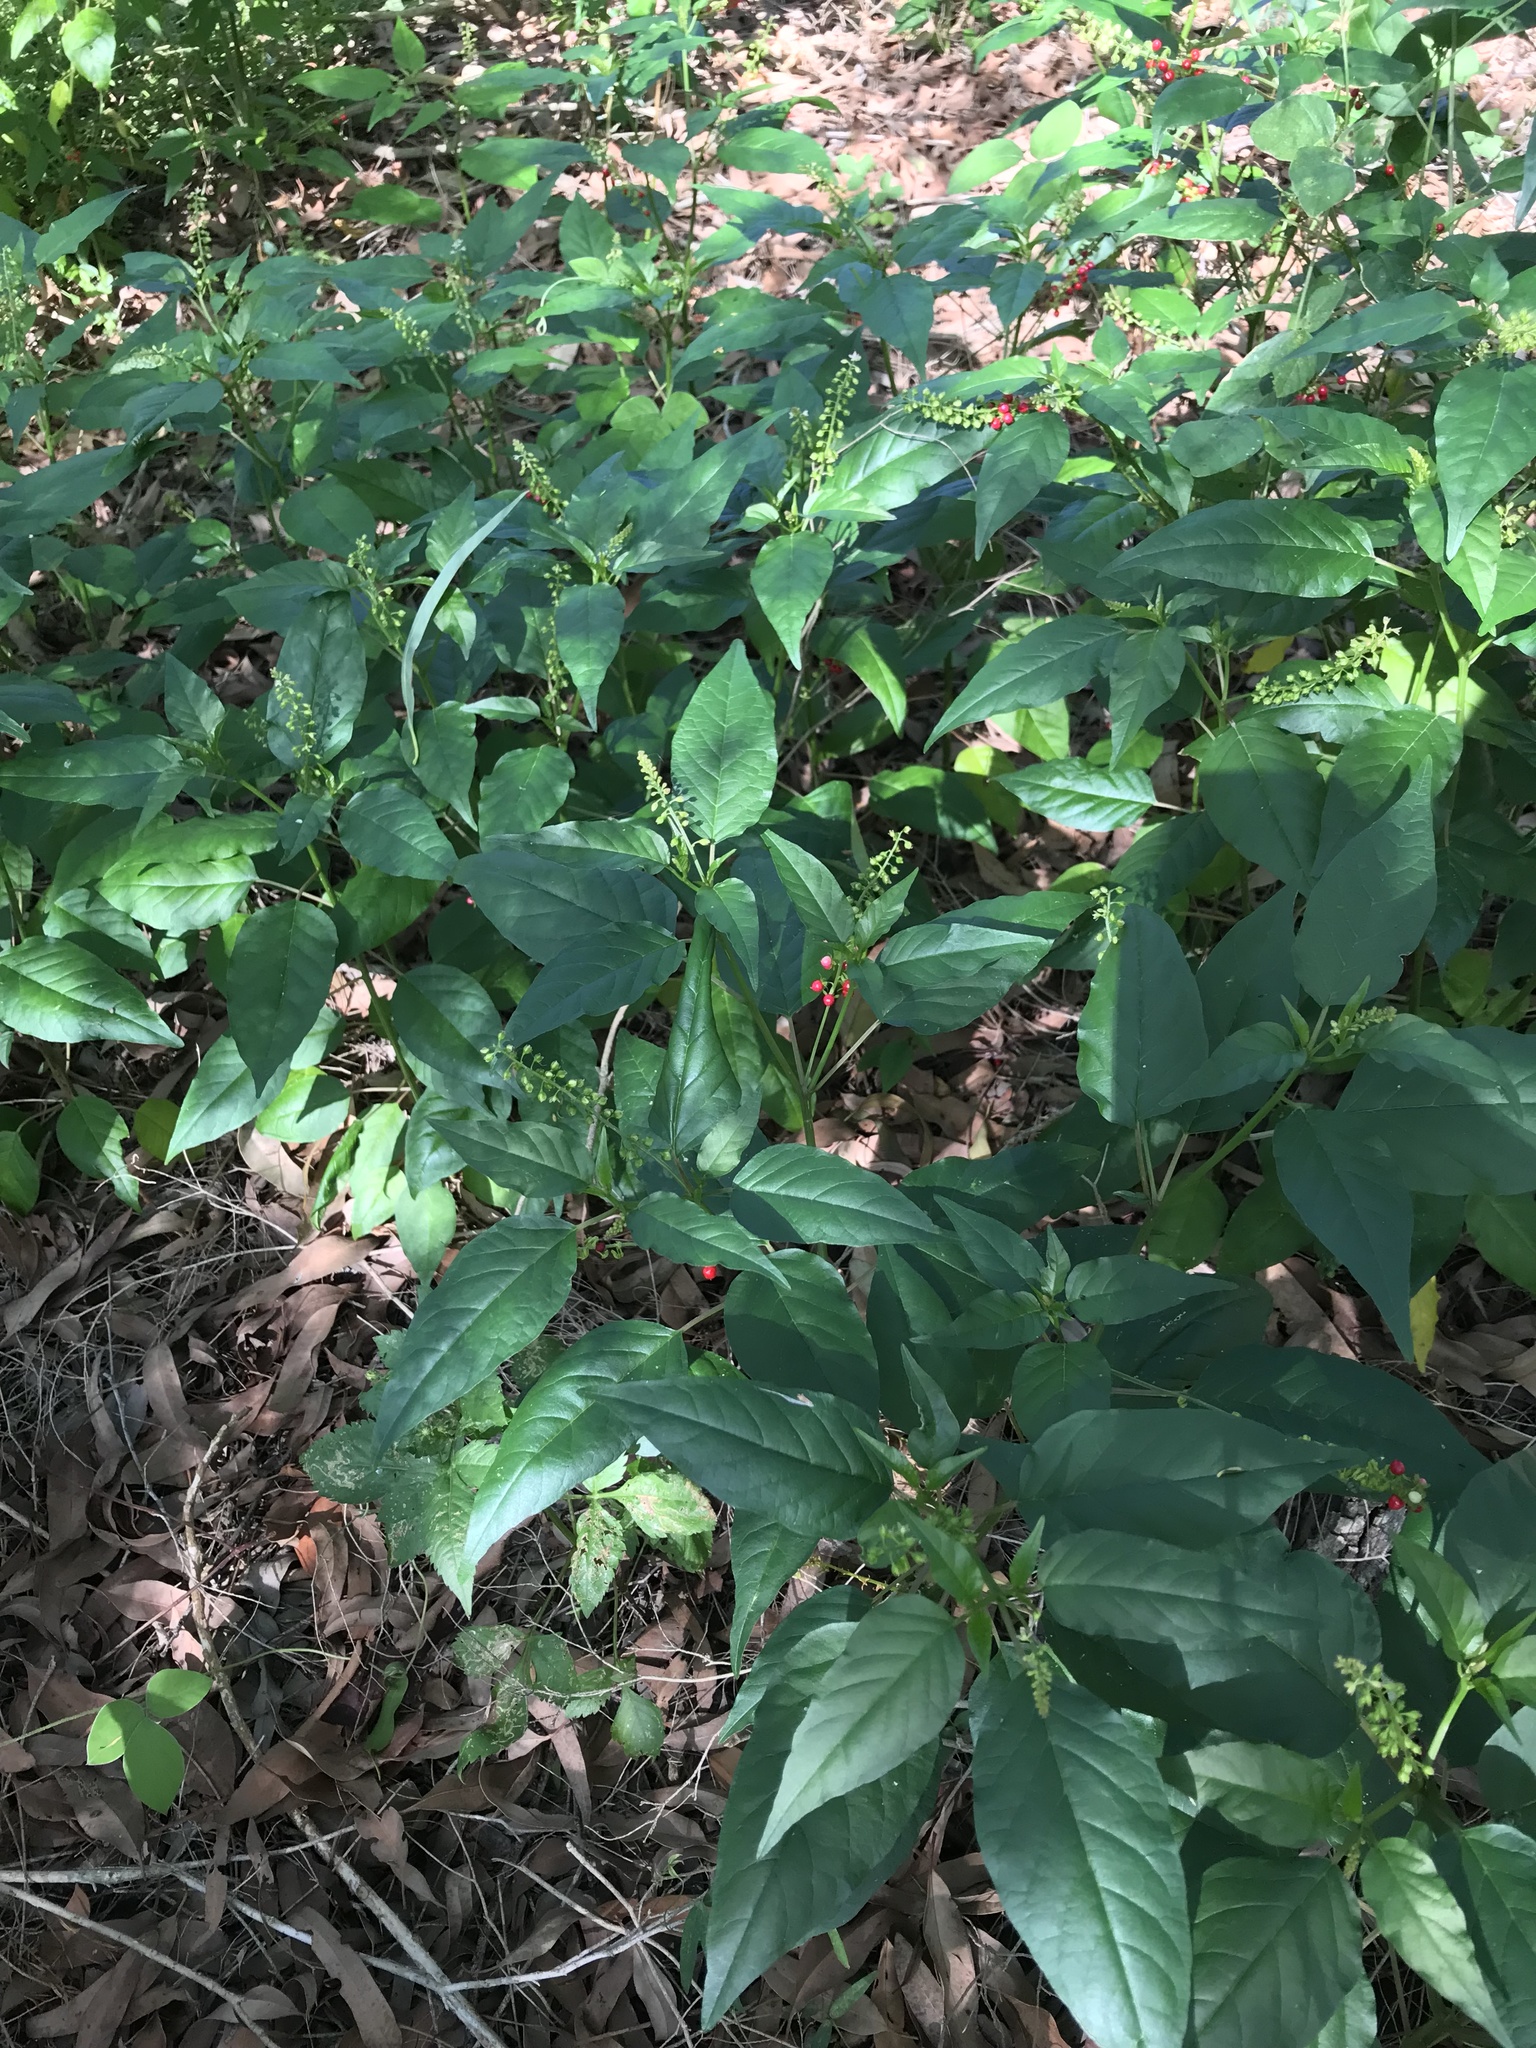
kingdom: Plantae
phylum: Tracheophyta
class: Magnoliopsida
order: Caryophyllales
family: Phytolaccaceae
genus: Rivina
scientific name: Rivina humilis
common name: Rougeplant
